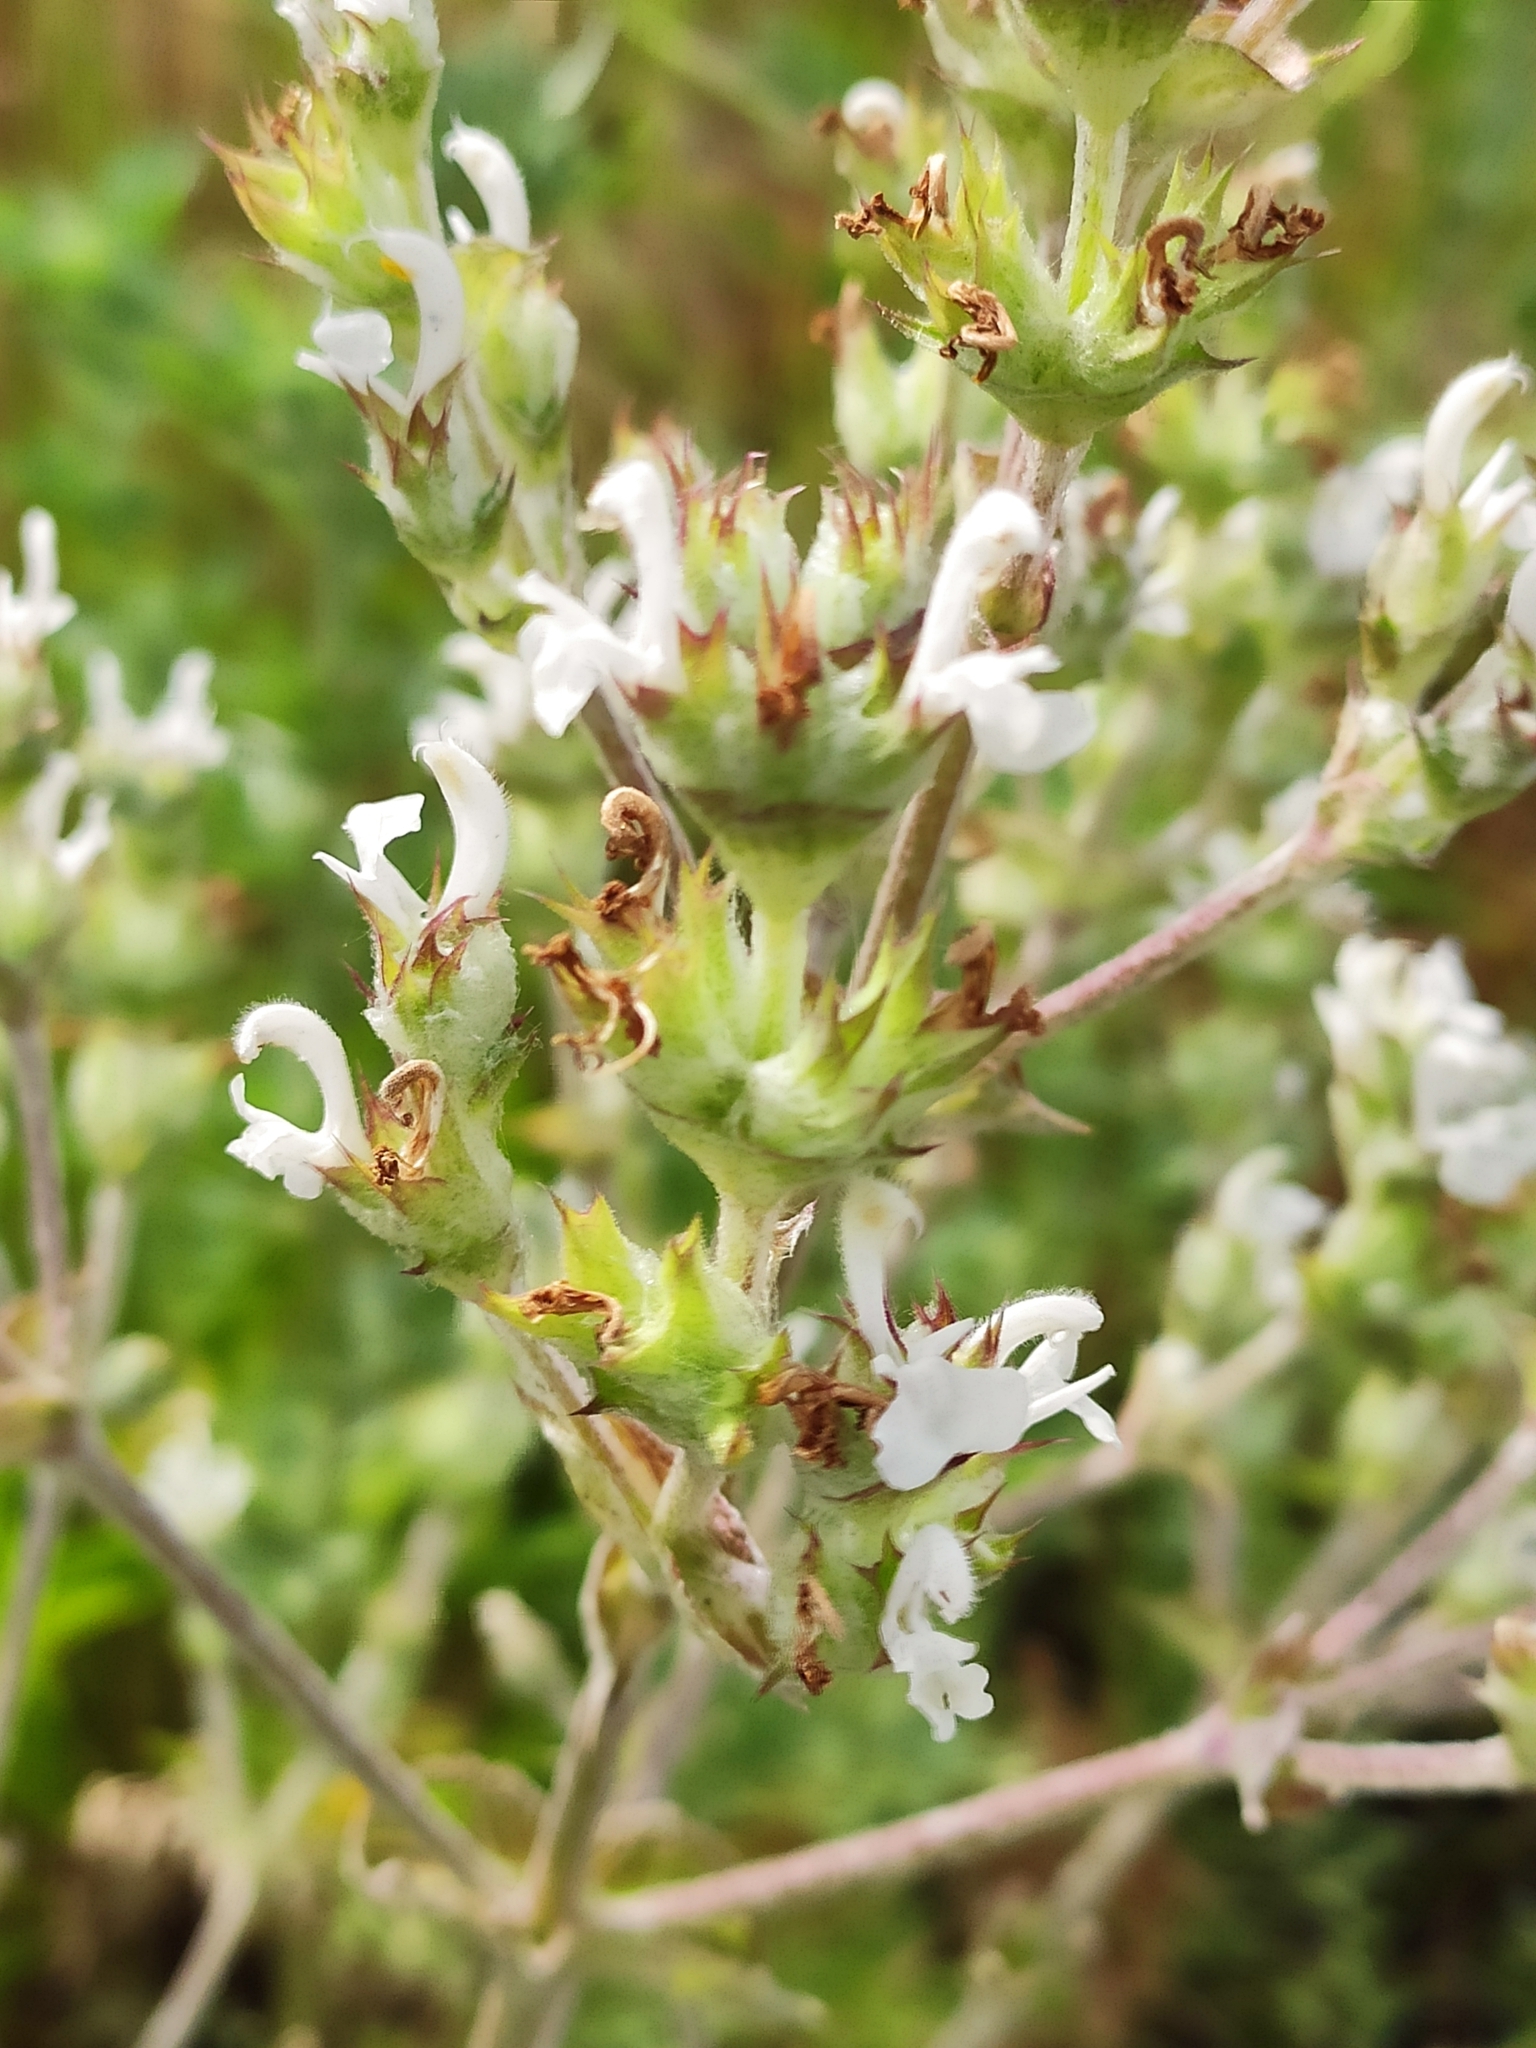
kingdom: Plantae
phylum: Tracheophyta
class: Magnoliopsida
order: Lamiales
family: Lamiaceae
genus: Salvia
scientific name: Salvia aethiopis
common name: Mediterranean sage
